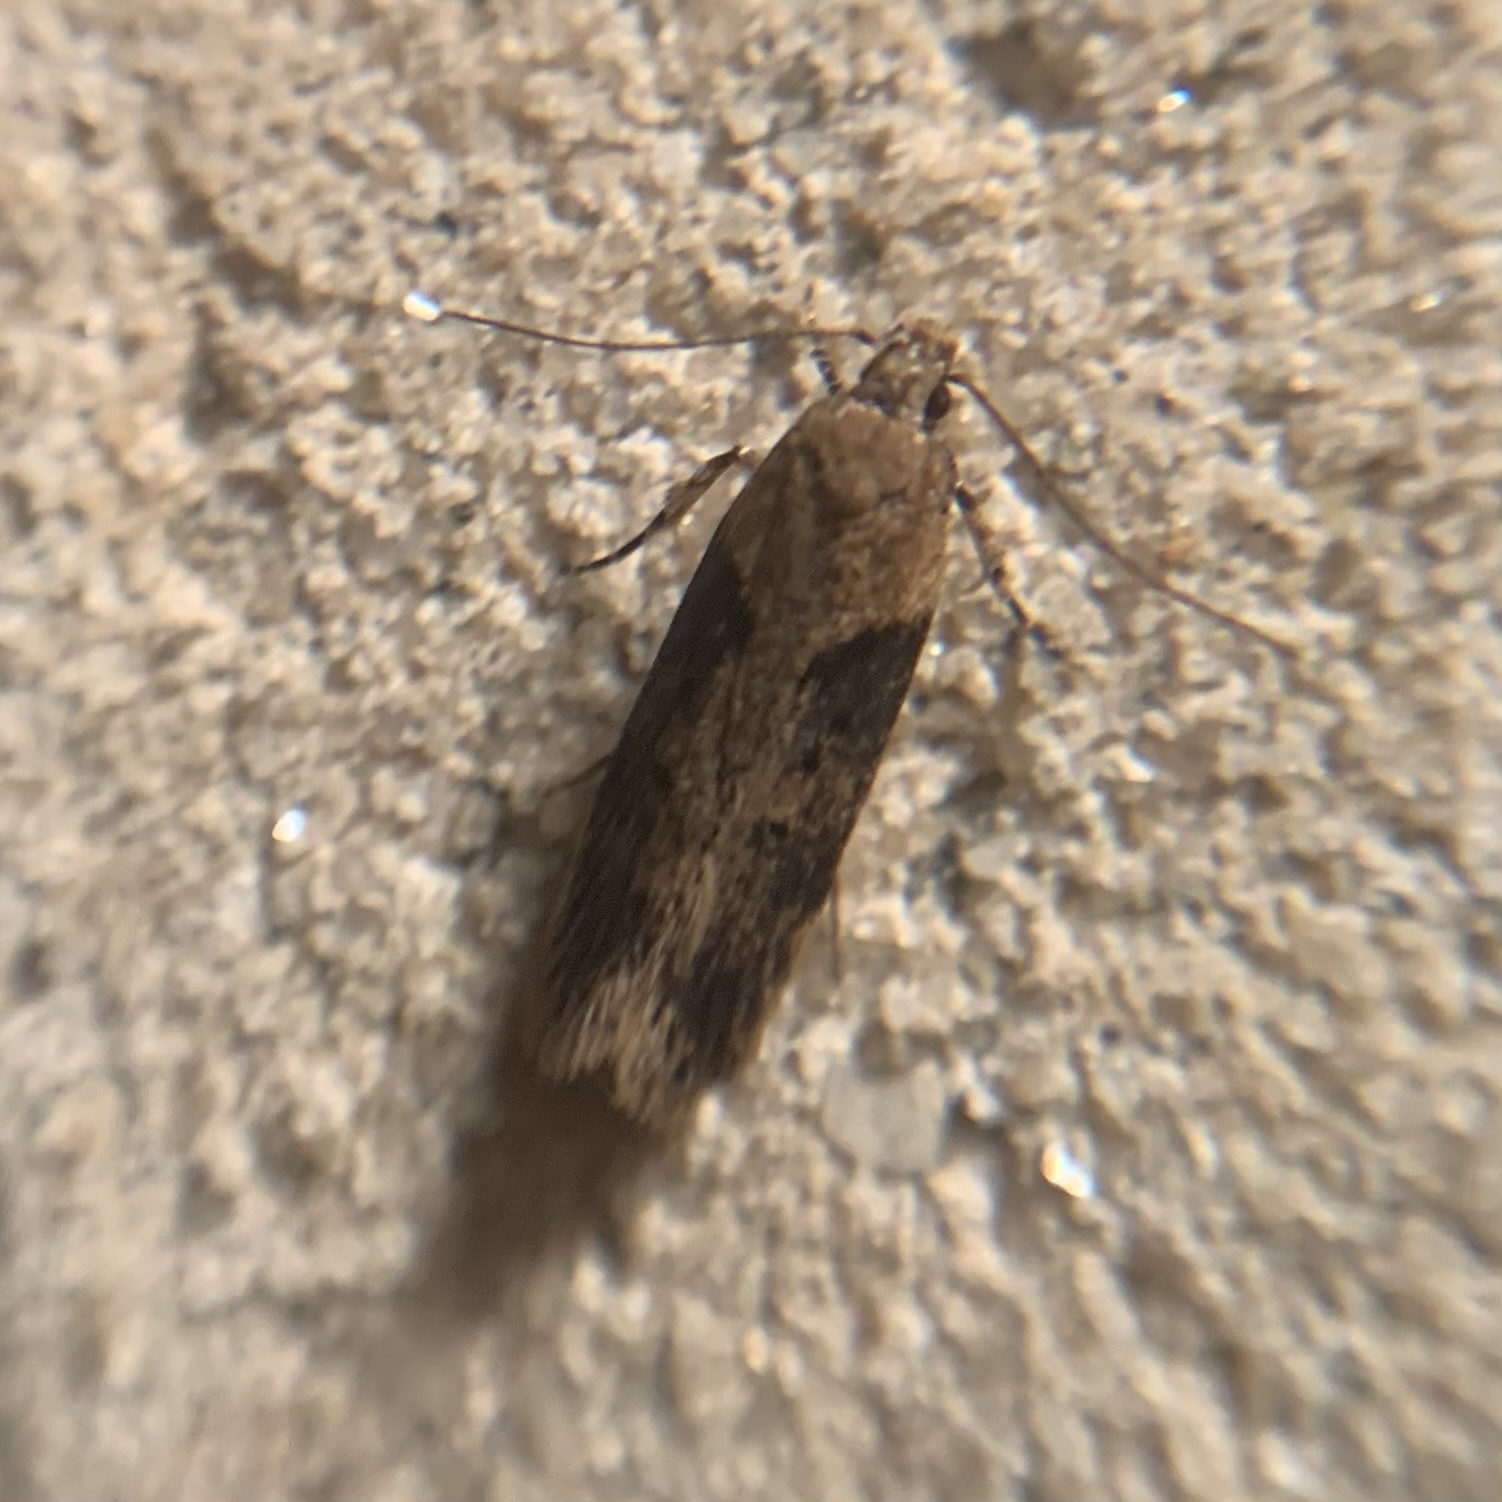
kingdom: Animalia
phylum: Arthropoda
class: Insecta
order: Lepidoptera
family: Gelechiidae
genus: Chionodes
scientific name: Chionodes mediofuscella
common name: Black-smudged chionodes moth
